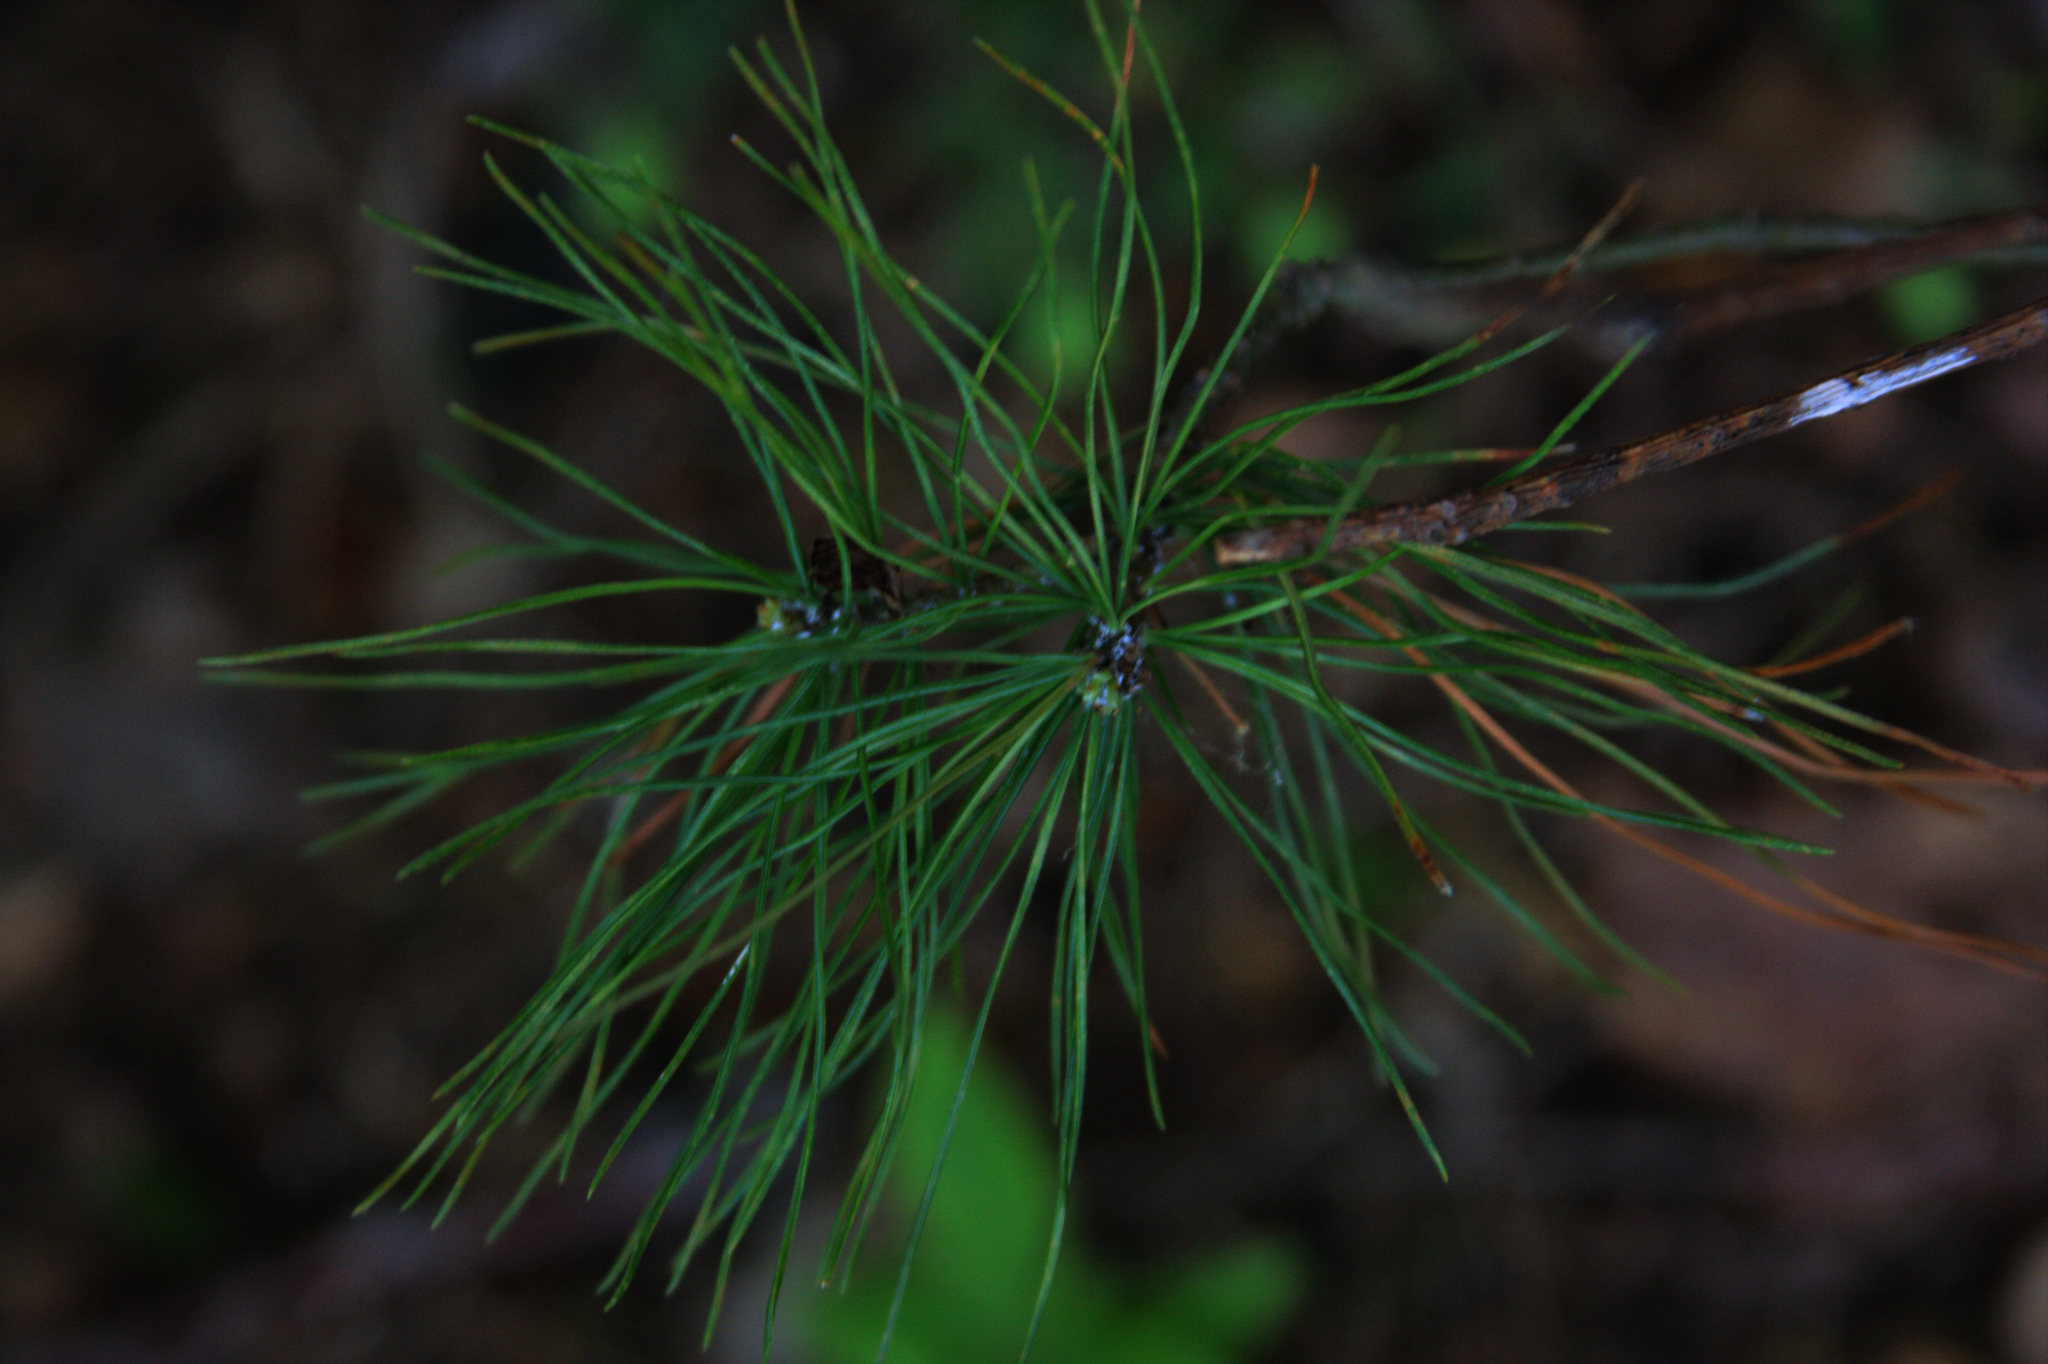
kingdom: Plantae
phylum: Tracheophyta
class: Pinopsida
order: Pinales
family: Pinaceae
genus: Pinus
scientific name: Pinus strobus
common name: Weymouth pine
